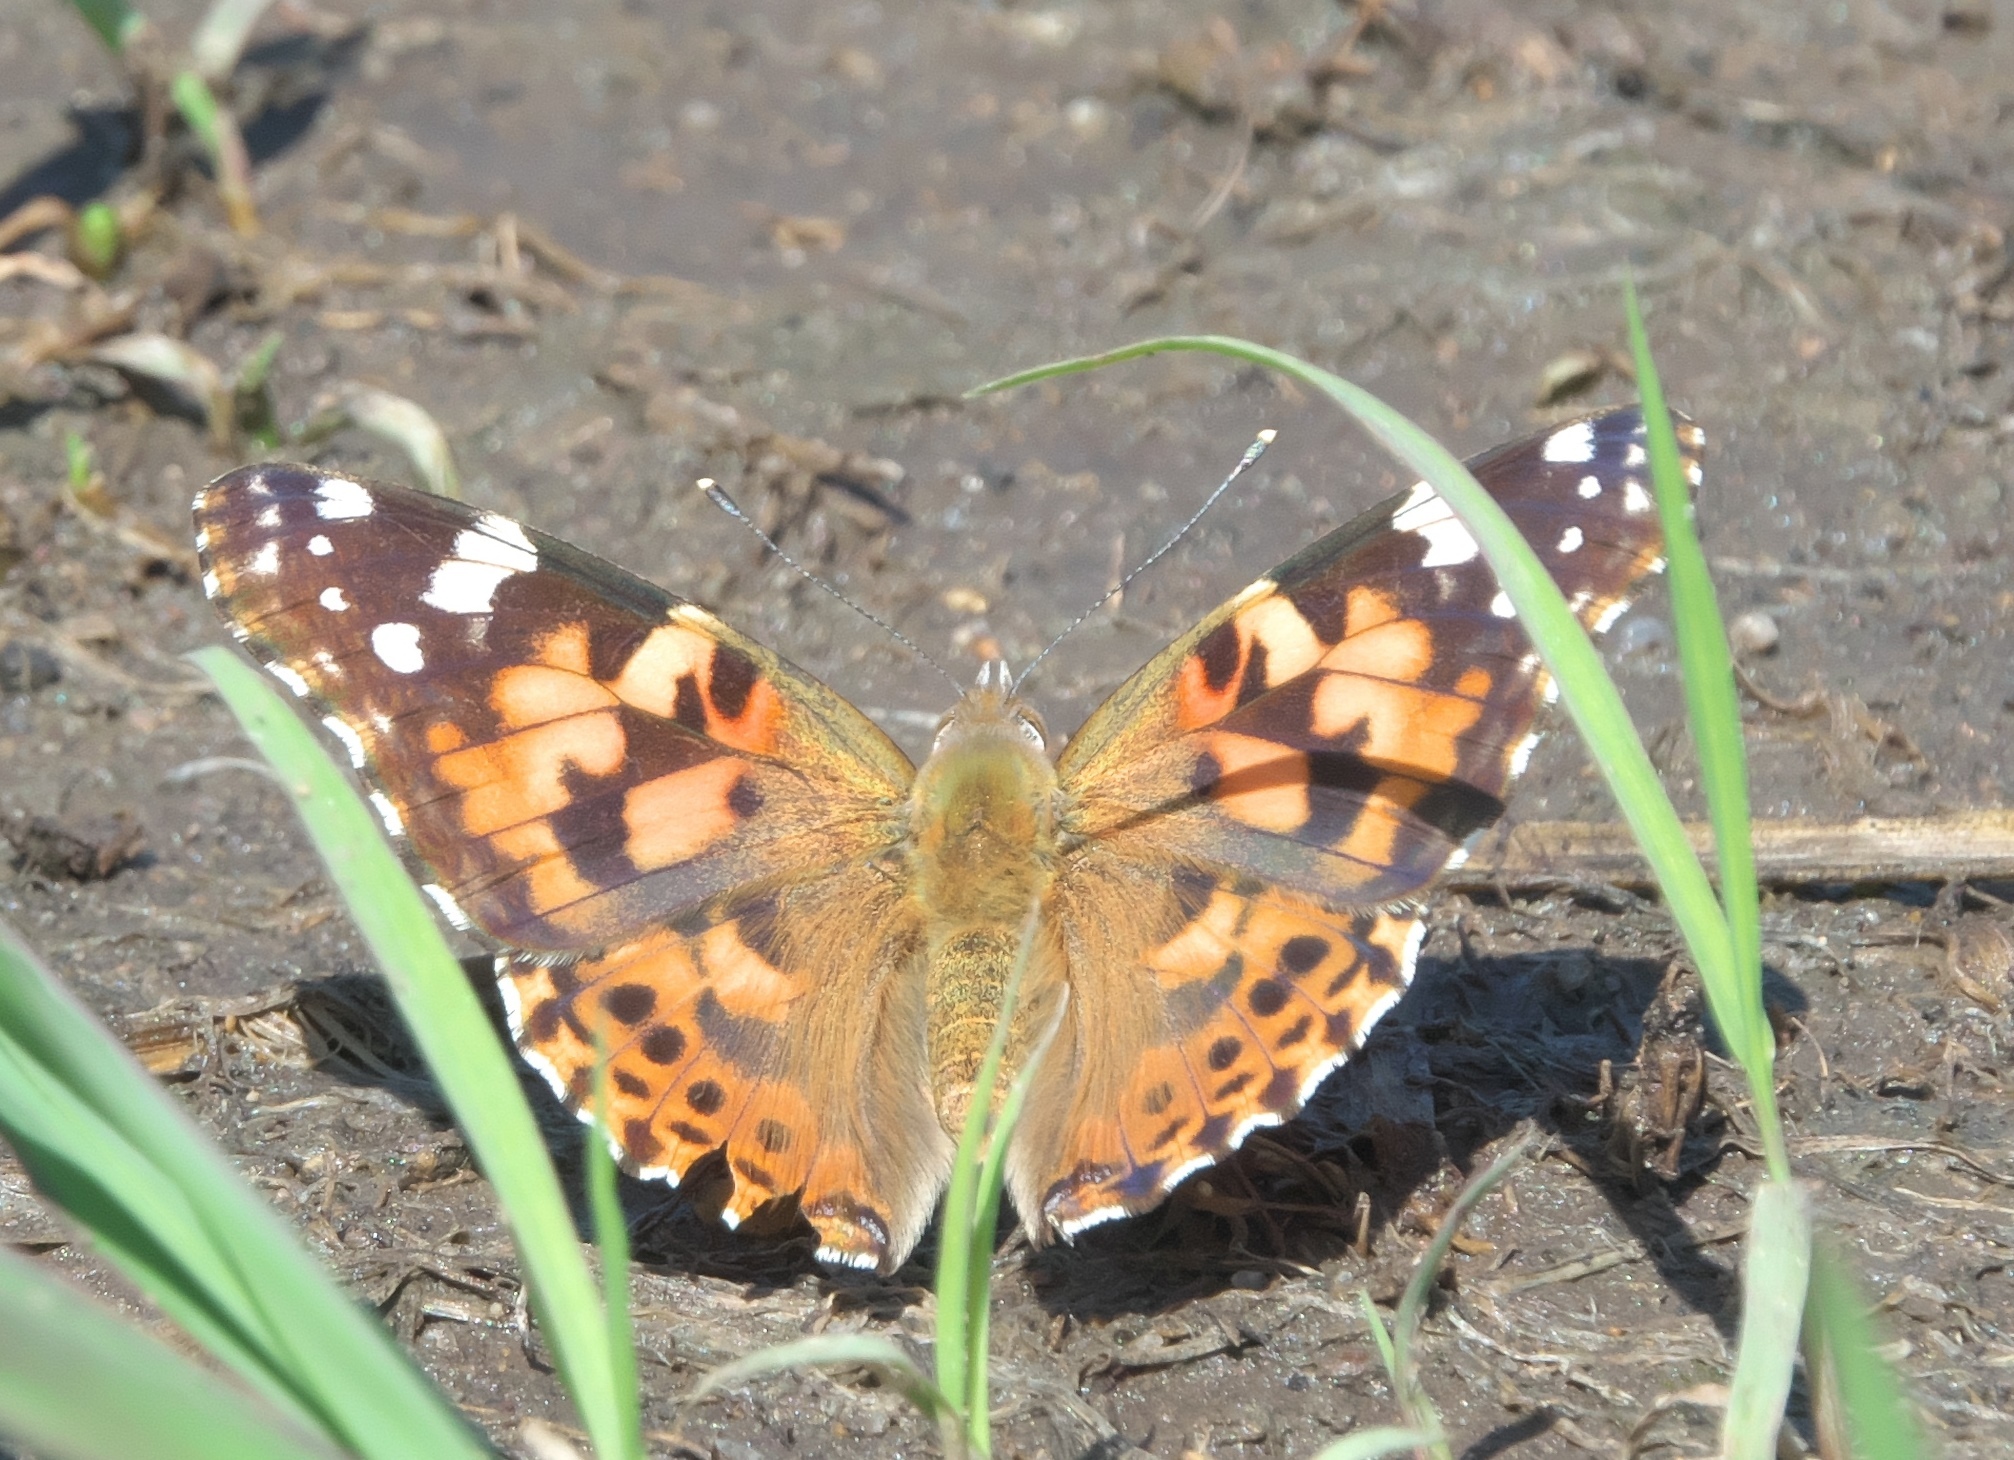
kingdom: Animalia
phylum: Arthropoda
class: Insecta
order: Lepidoptera
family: Nymphalidae
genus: Vanessa
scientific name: Vanessa cardui
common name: Painted lady
